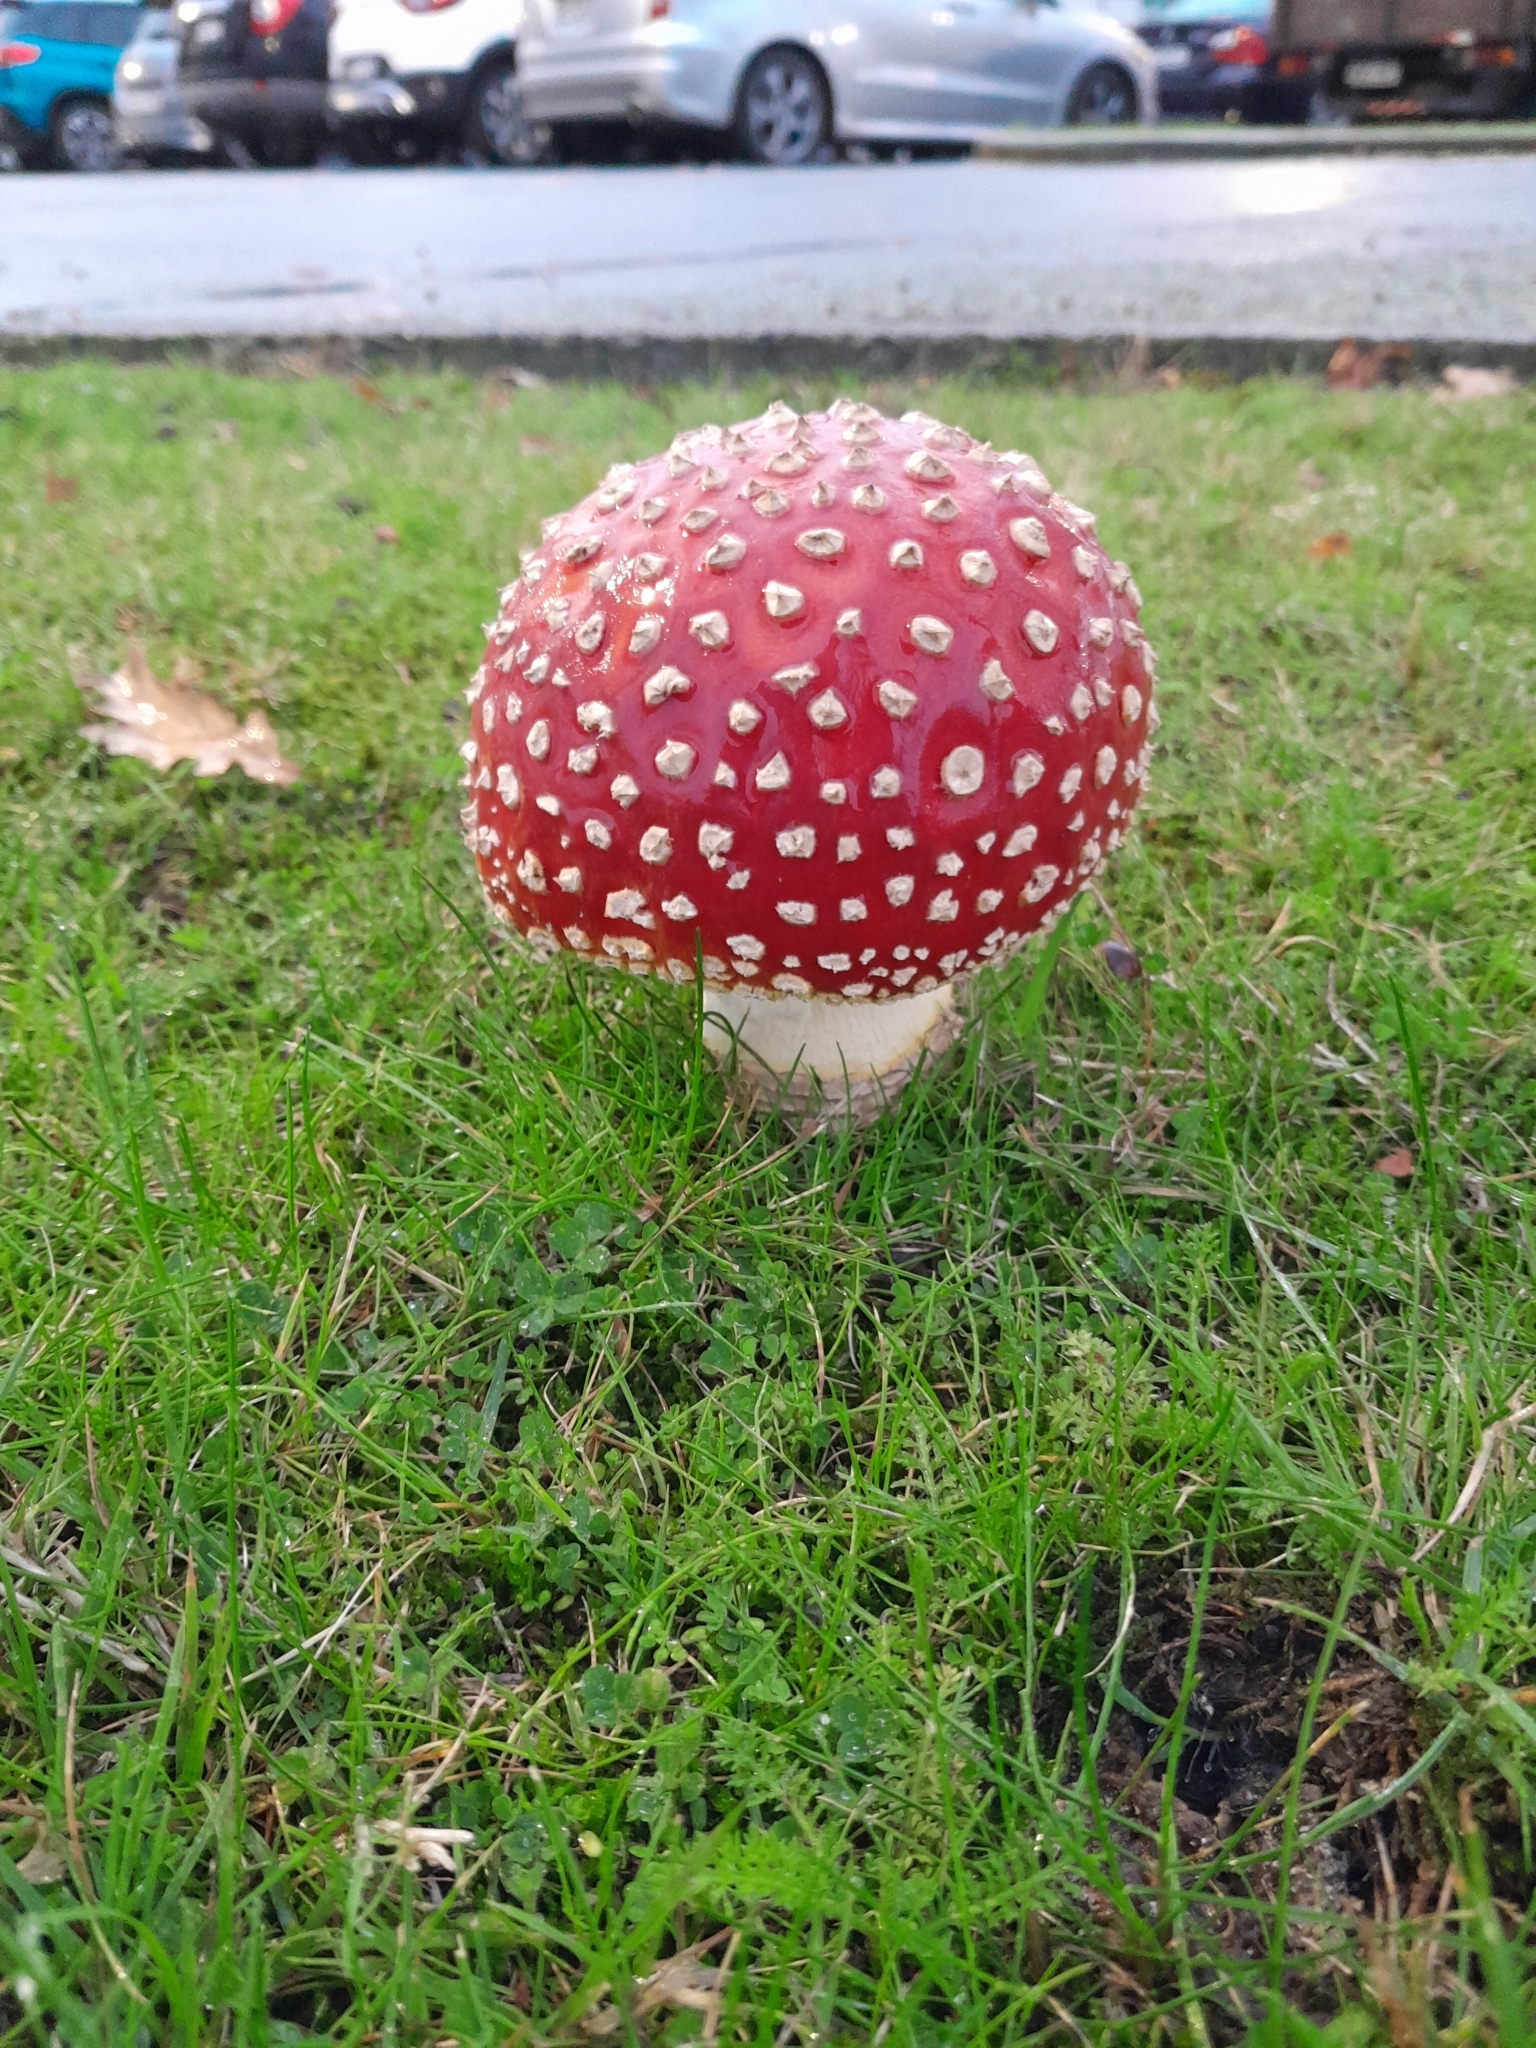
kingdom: Fungi
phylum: Basidiomycota
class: Agaricomycetes
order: Agaricales
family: Amanitaceae
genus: Amanita
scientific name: Amanita muscaria
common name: Fly agaric
